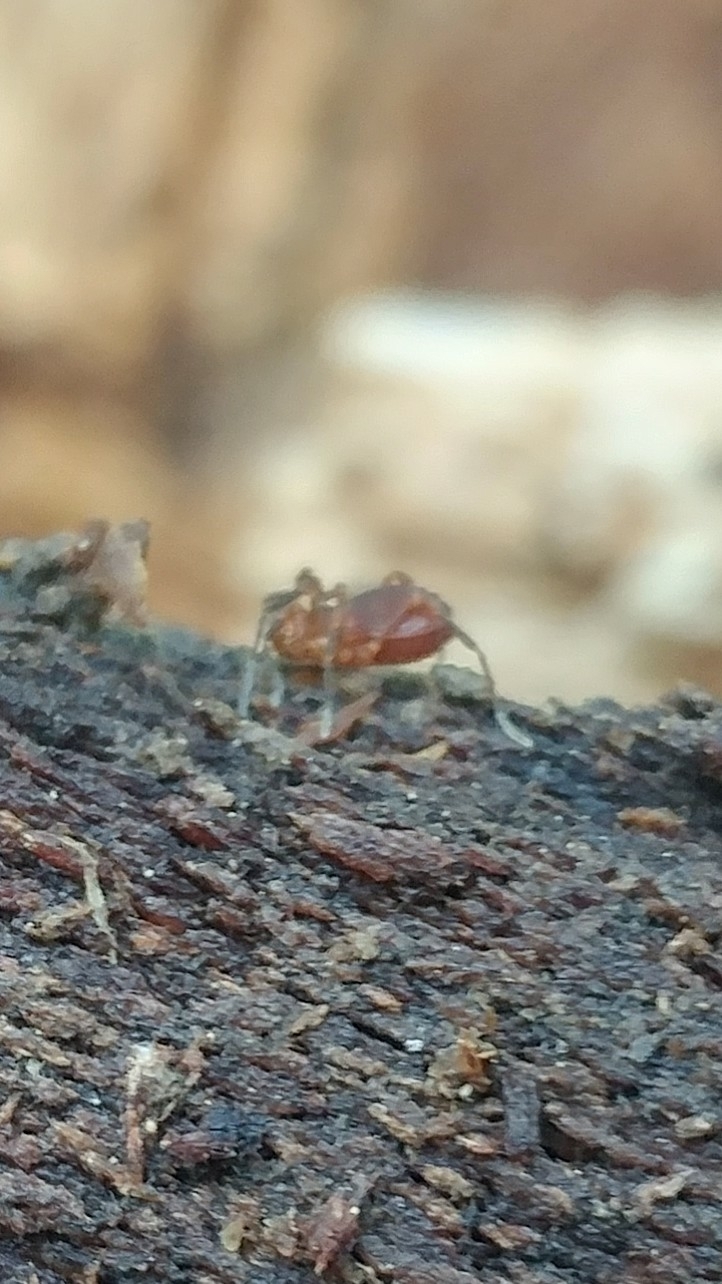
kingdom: Animalia
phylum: Arthropoda
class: Arachnida
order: Opiliones
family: Paranonychidae
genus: Sclerobunus
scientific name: Sclerobunus robustus
